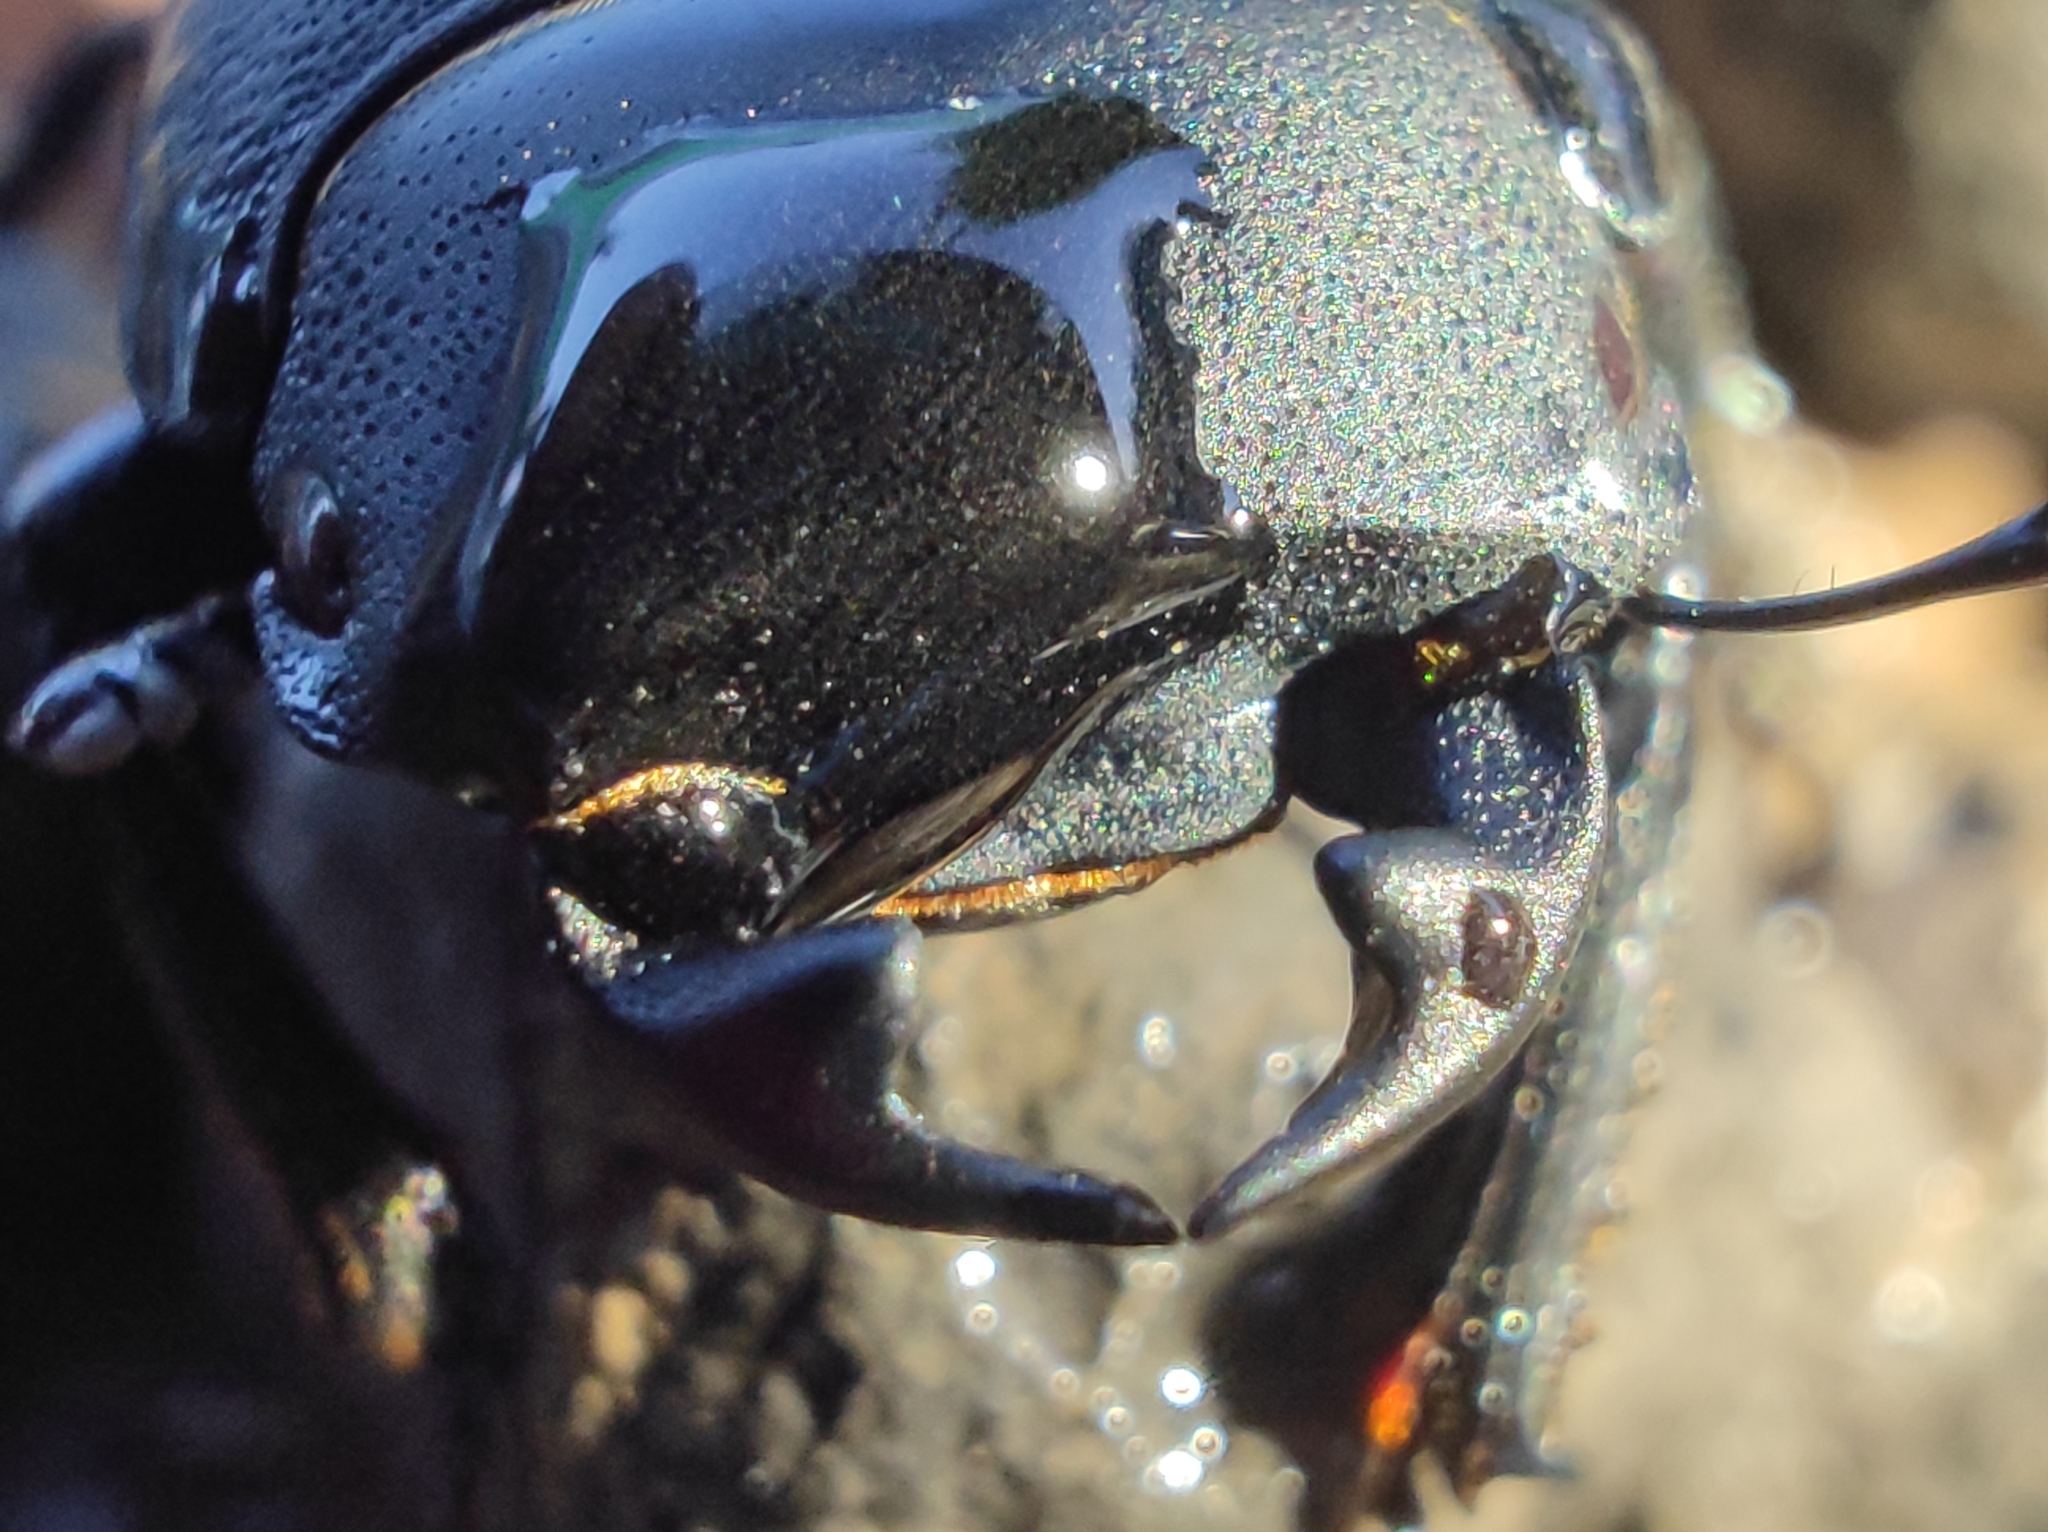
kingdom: Animalia
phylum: Arthropoda
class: Insecta
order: Coleoptera
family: Lucanidae
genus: Dorcus
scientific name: Dorcus parallelipipedus
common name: Lesser stag beetle
